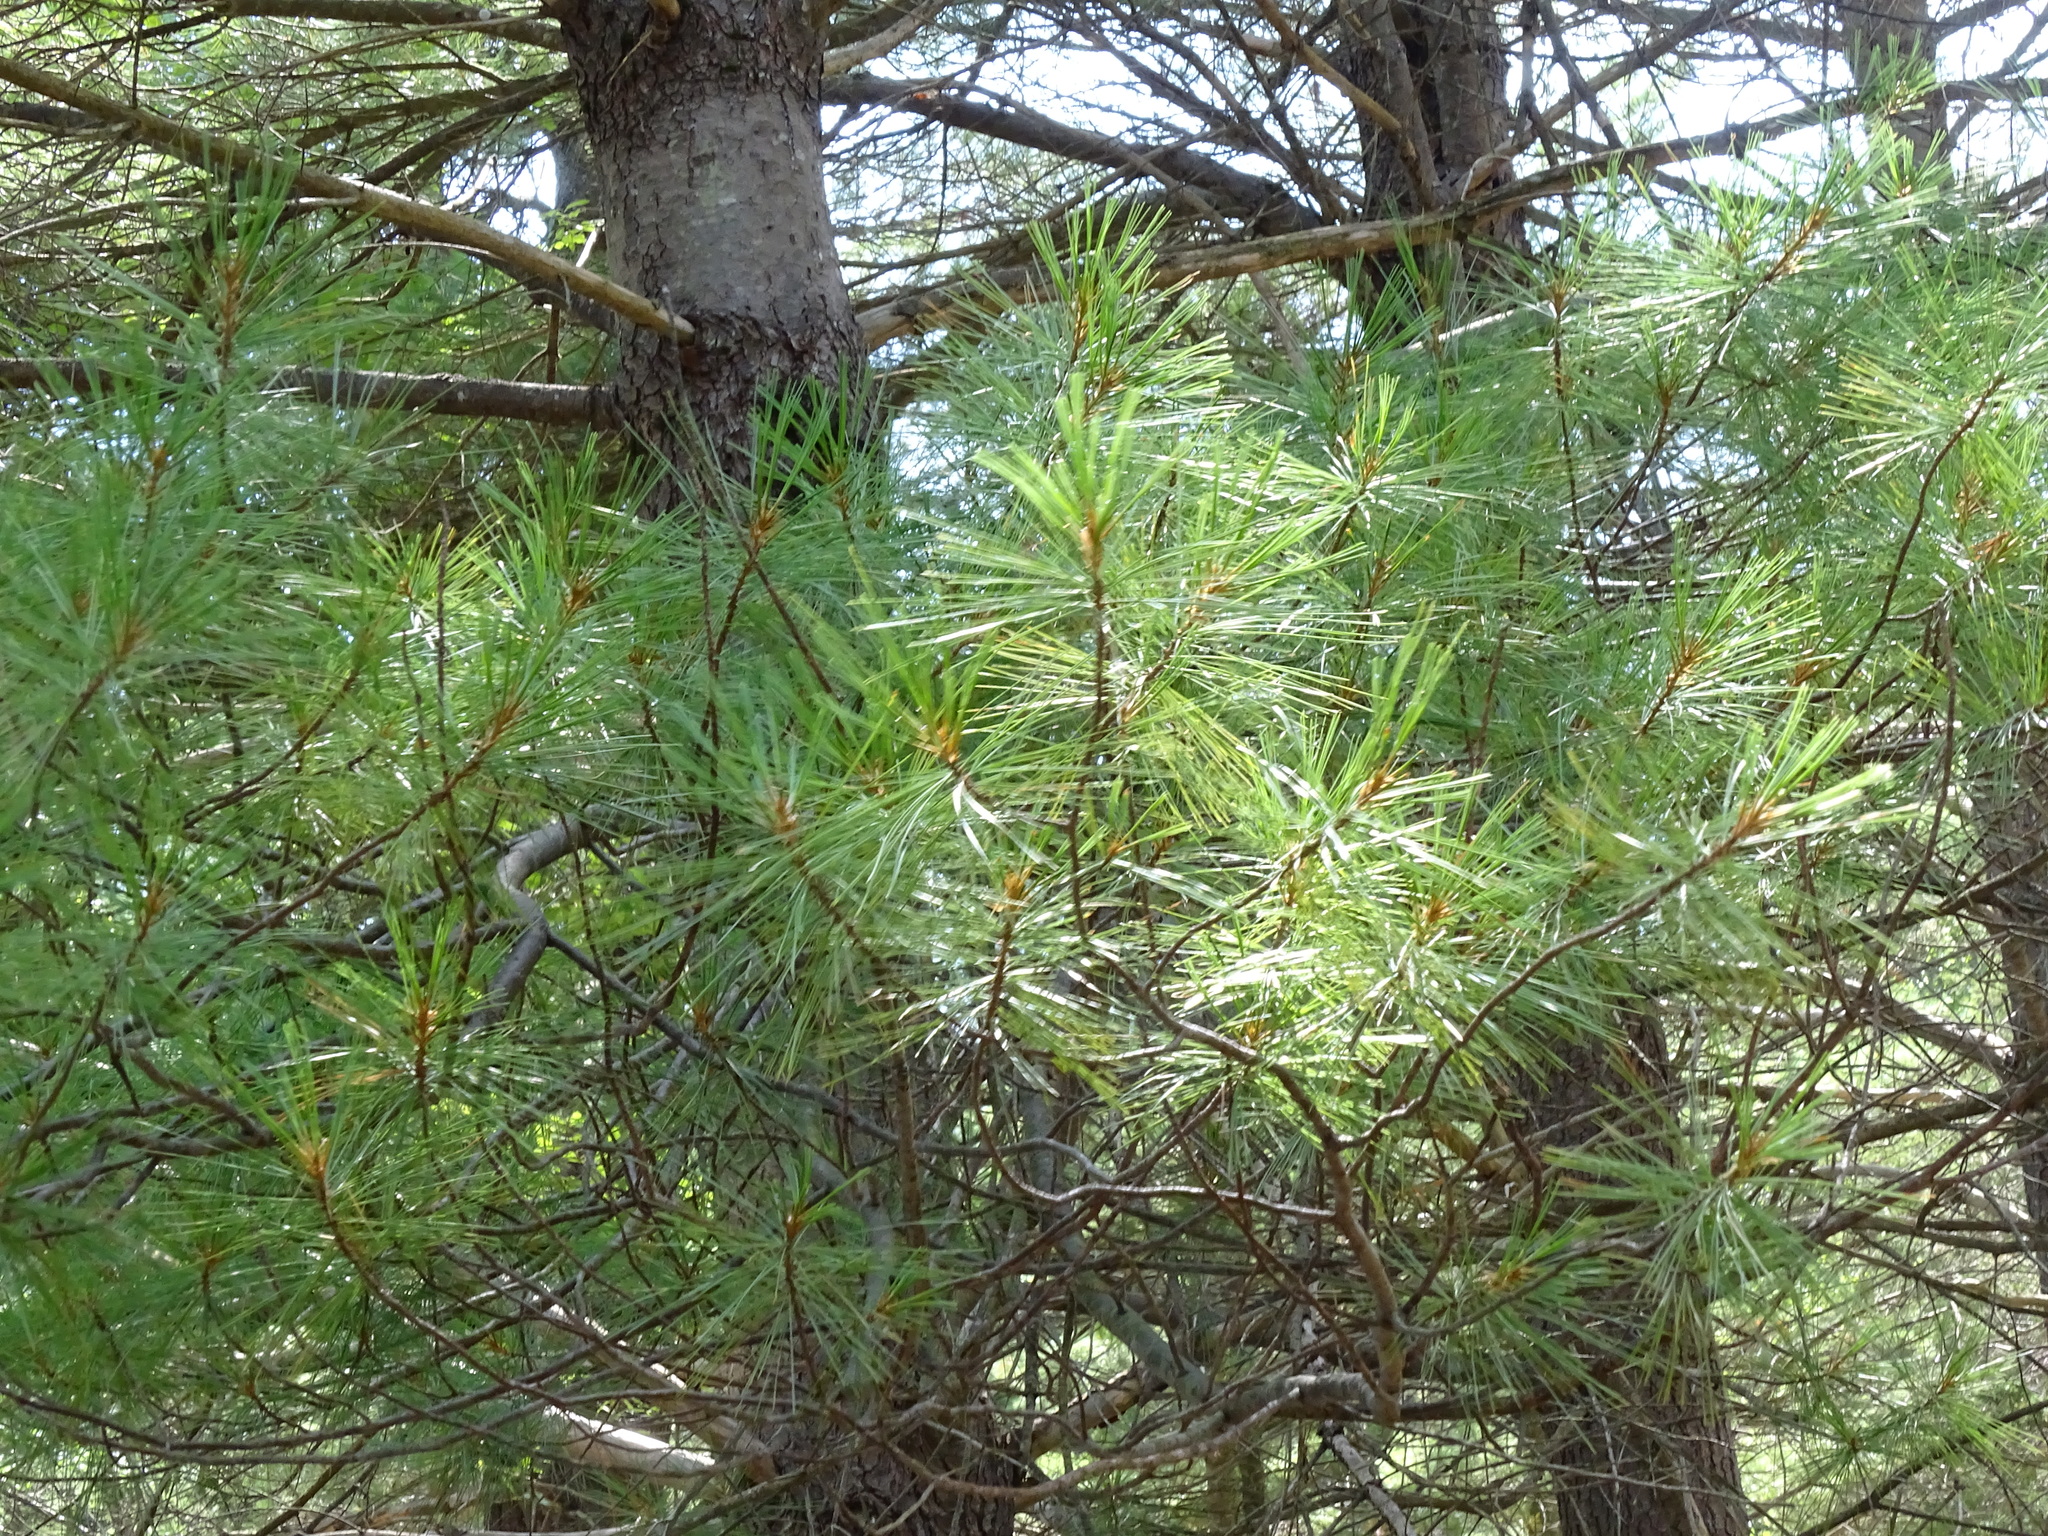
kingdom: Plantae
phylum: Tracheophyta
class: Pinopsida
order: Pinales
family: Pinaceae
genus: Pinus
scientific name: Pinus strobus
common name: Weymouth pine
